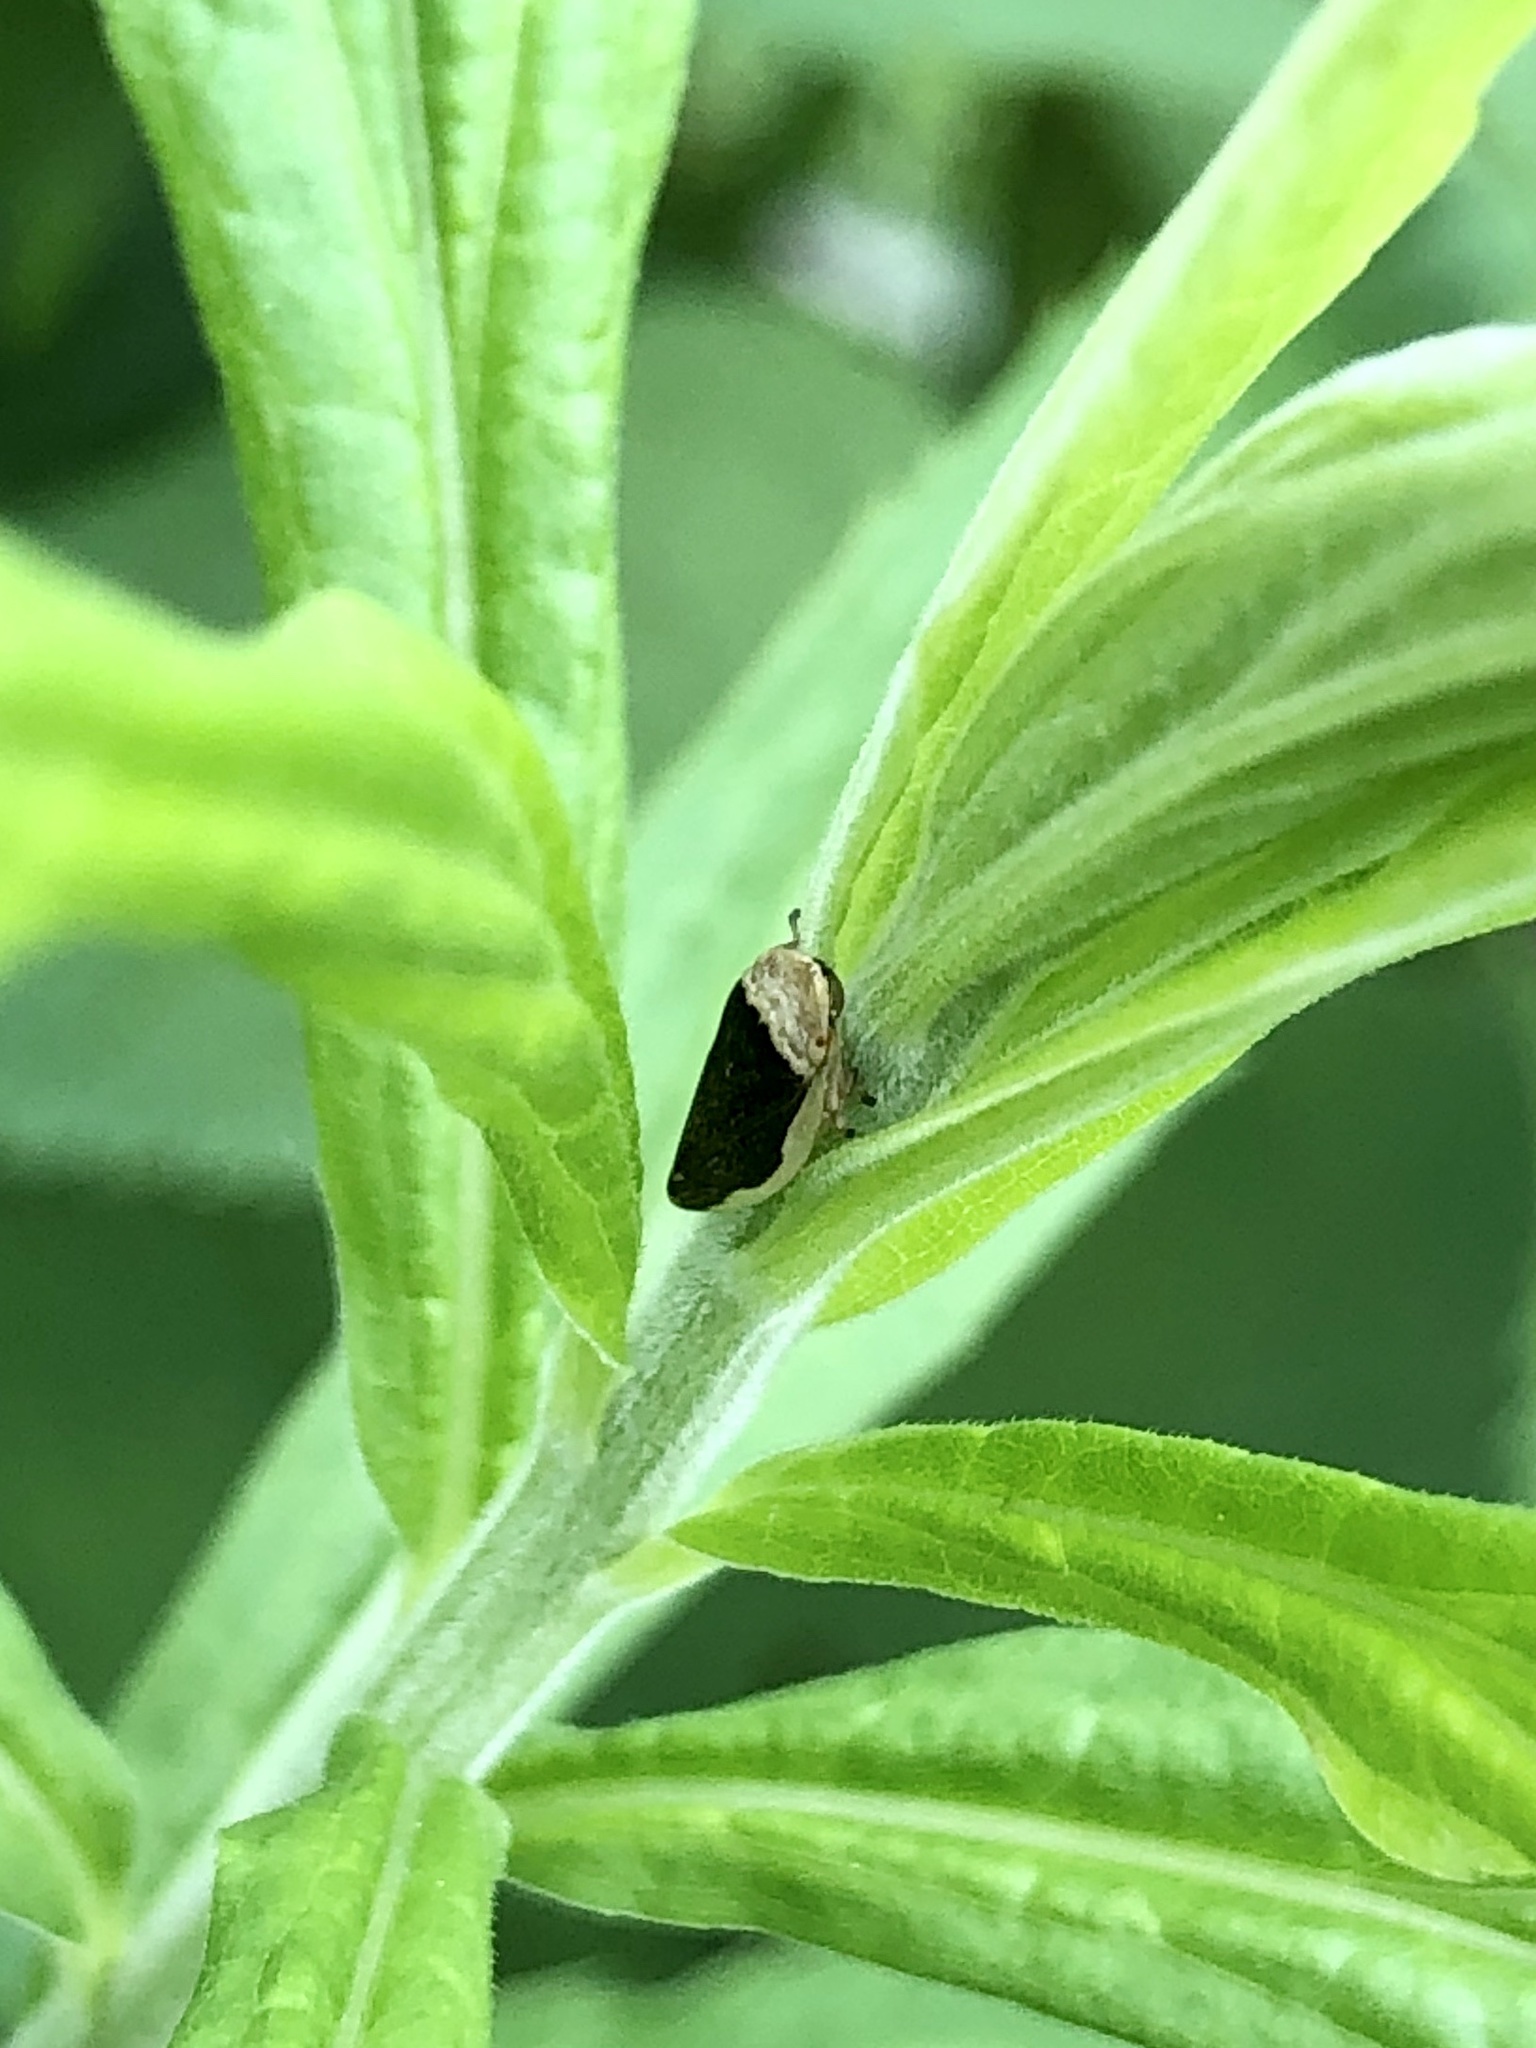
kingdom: Animalia
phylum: Arthropoda
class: Insecta
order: Hemiptera
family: Aphrophoridae
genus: Philaenus
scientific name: Philaenus spumarius
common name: Meadow spittlebug
